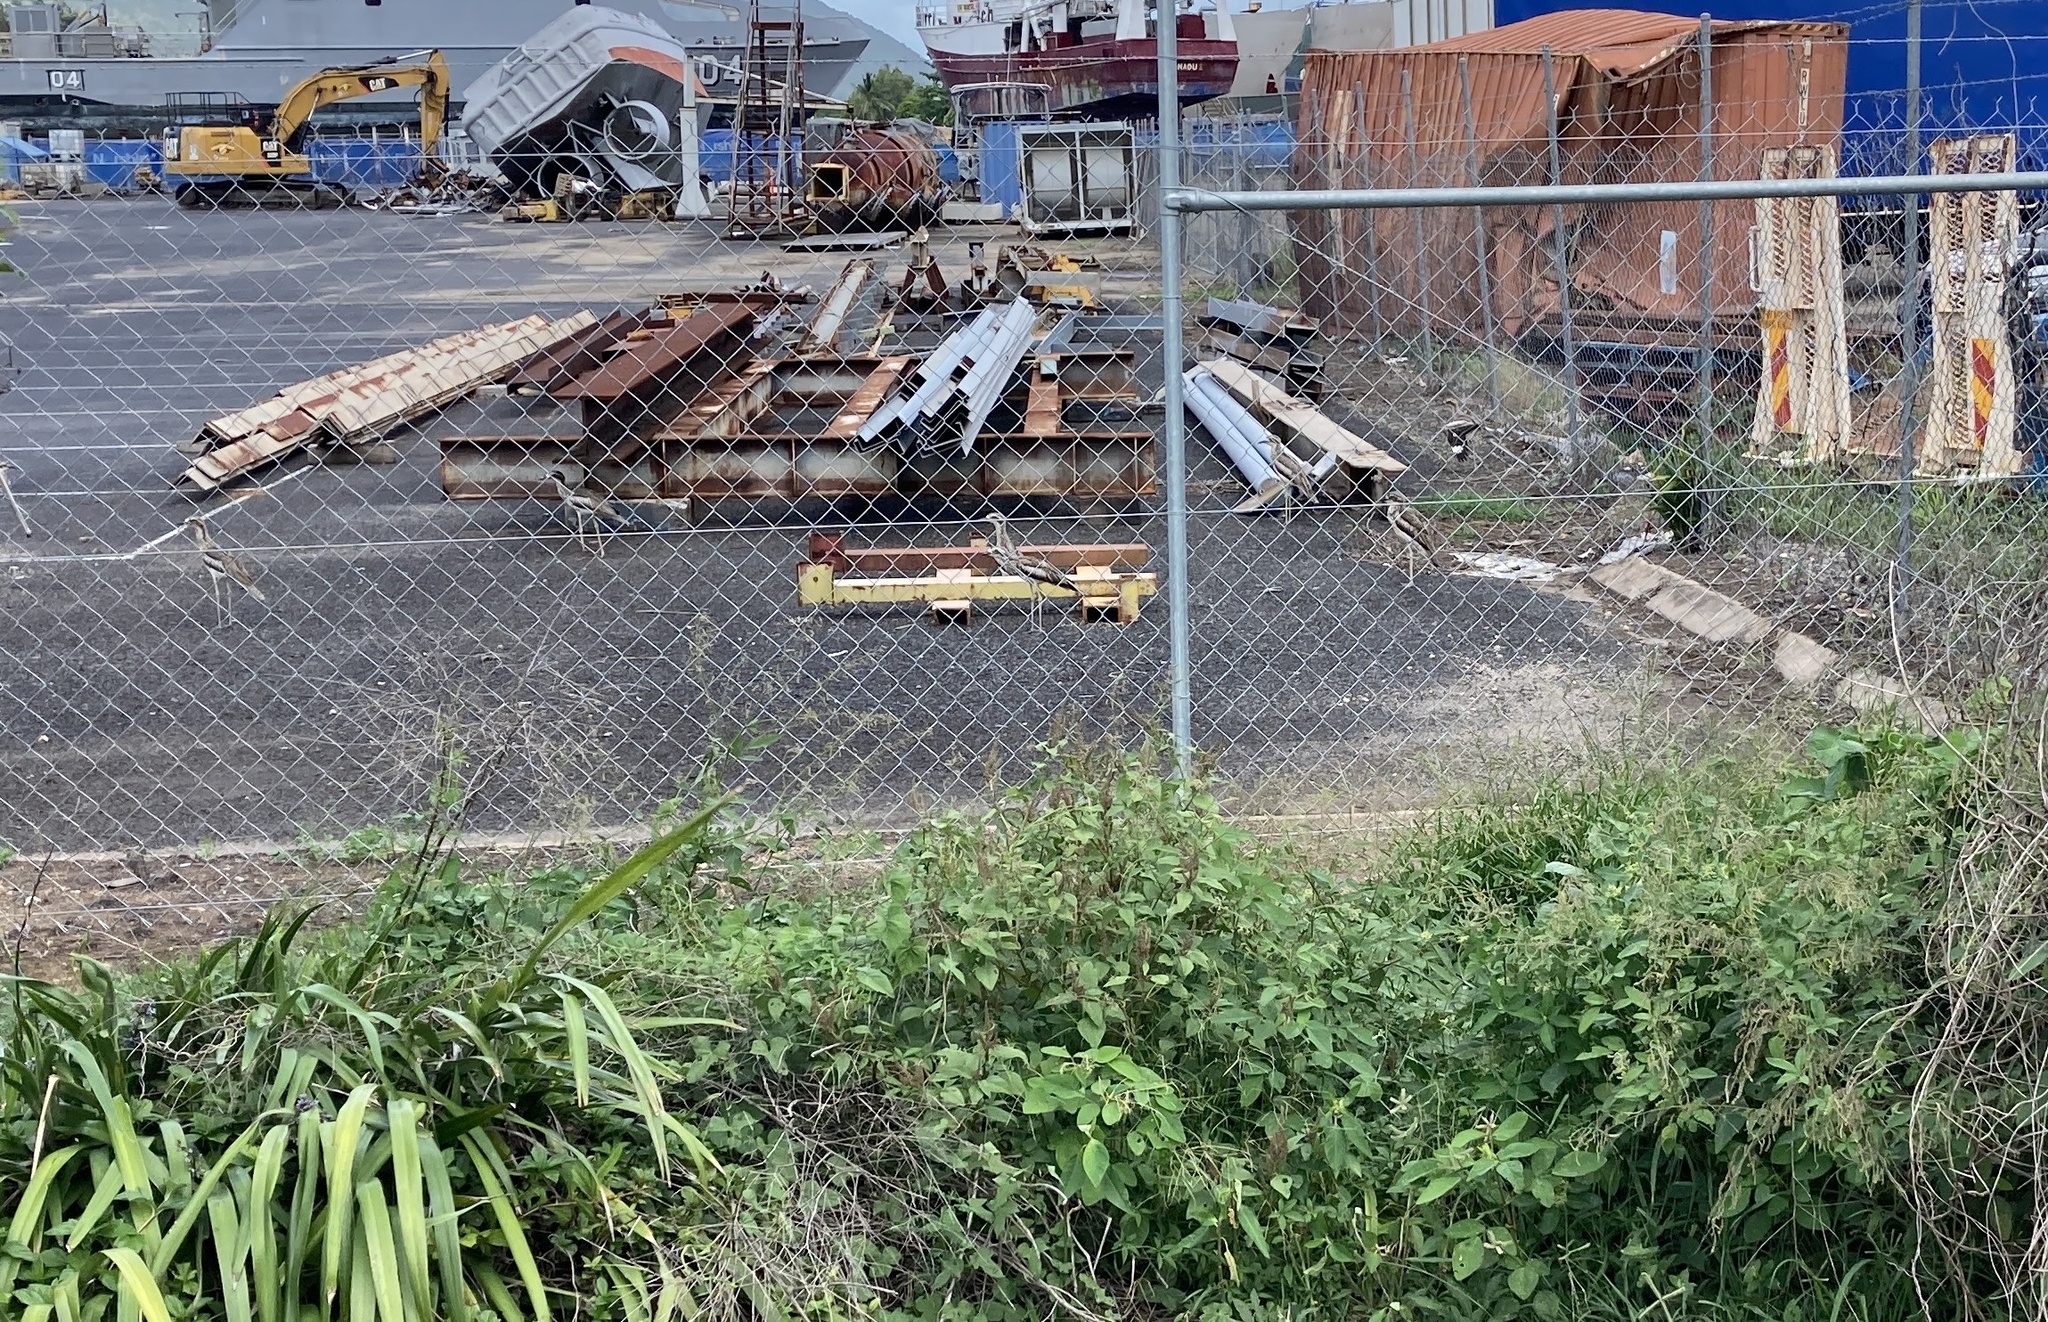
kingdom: Animalia
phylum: Chordata
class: Aves
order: Charadriiformes
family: Burhinidae
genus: Burhinus
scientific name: Burhinus grallarius
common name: Bush stone-curlew
